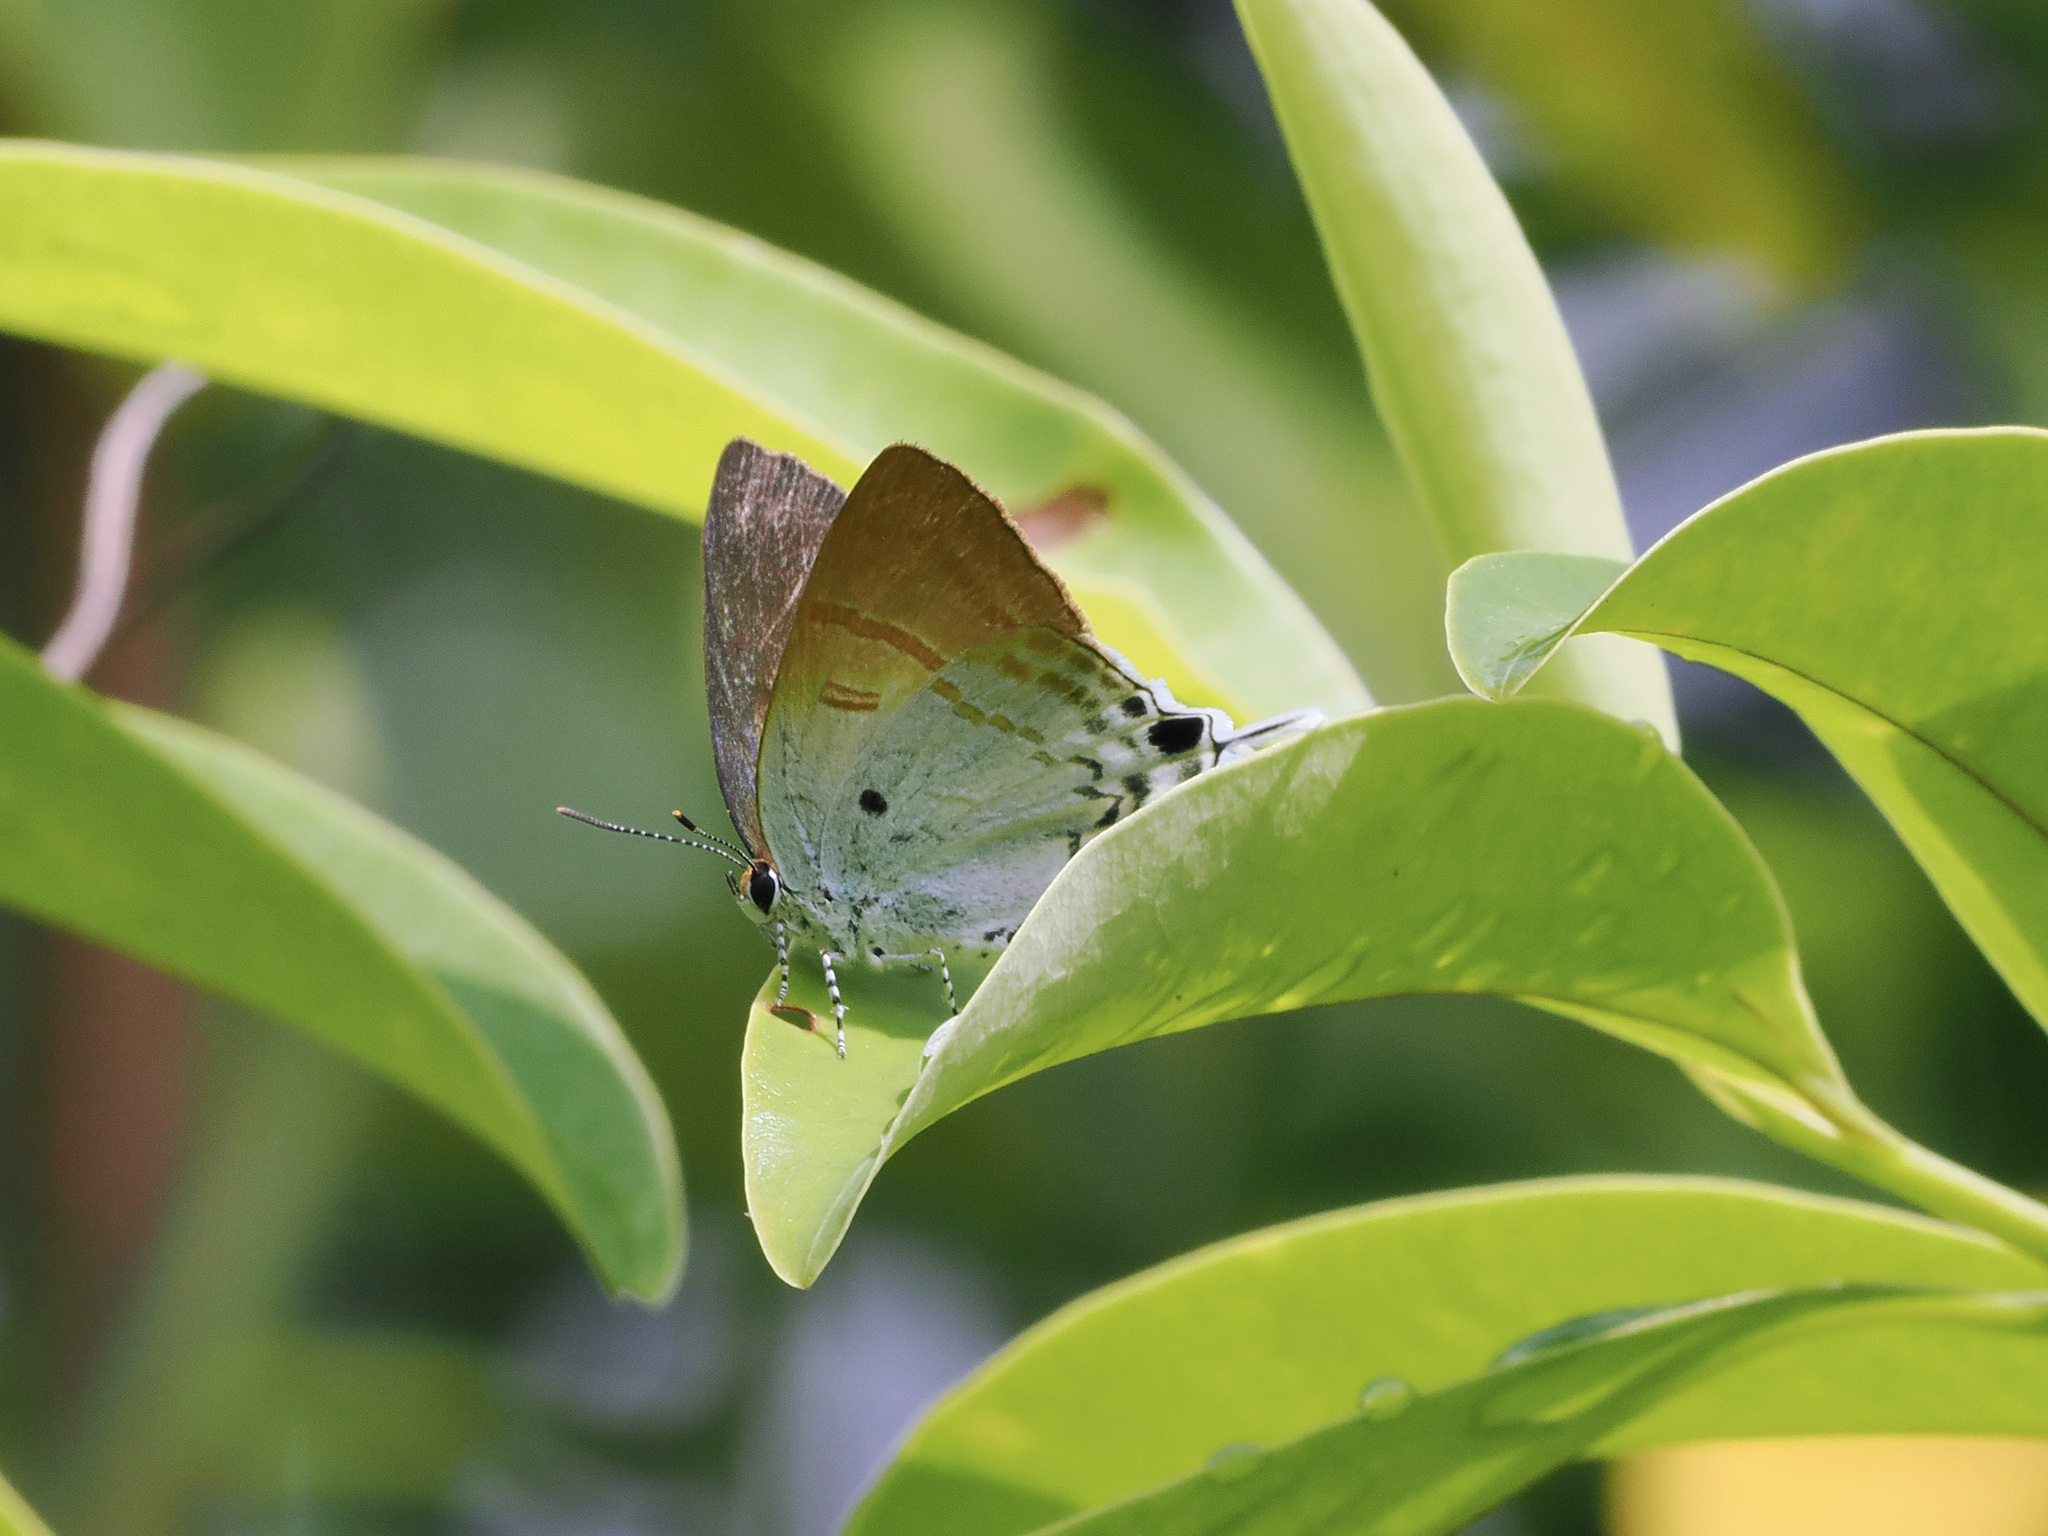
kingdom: Animalia
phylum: Arthropoda
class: Insecta
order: Lepidoptera
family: Lycaenidae
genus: Zeltus
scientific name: Zeltus amasa
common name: Fluffy tit
